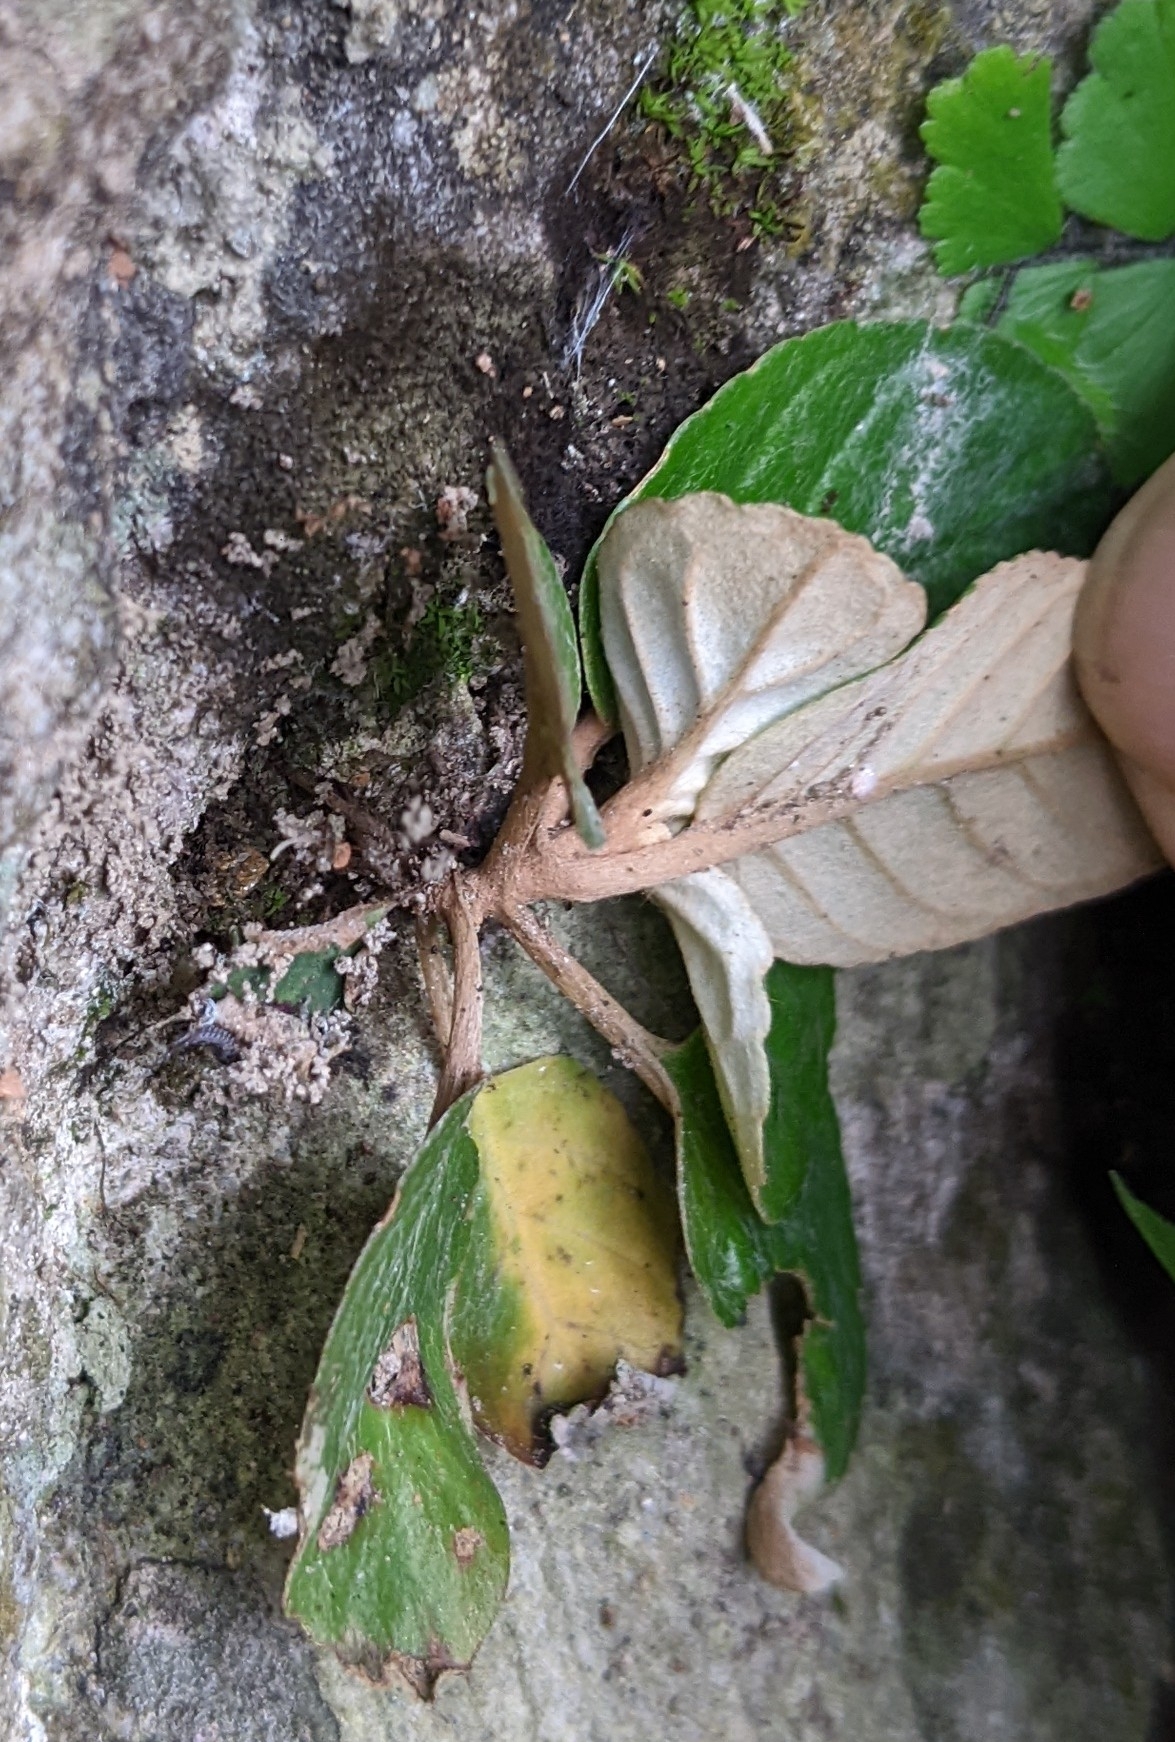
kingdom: Plantae
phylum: Tracheophyta
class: Magnoliopsida
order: Lamiales
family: Gesneriaceae
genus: Paraboea
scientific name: Paraboea swinhoei
